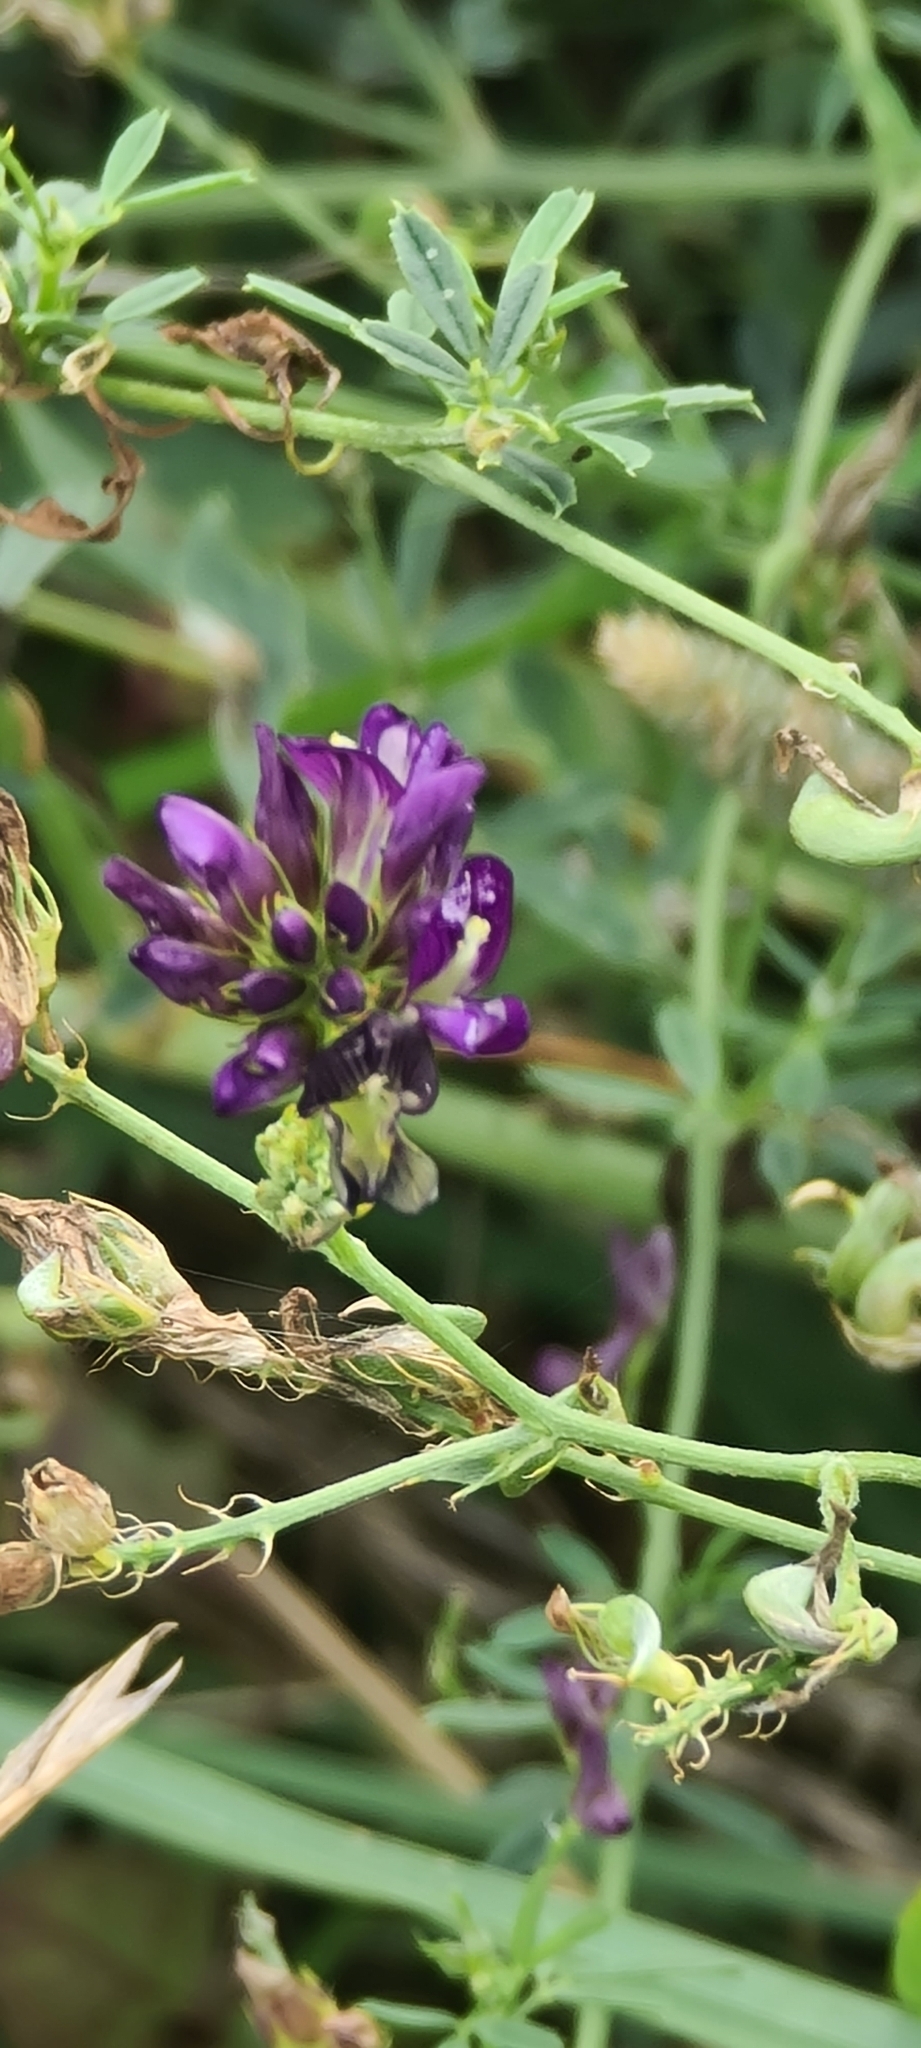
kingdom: Plantae
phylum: Tracheophyta
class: Magnoliopsida
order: Fabales
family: Fabaceae
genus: Medicago
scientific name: Medicago sativa
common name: Alfalfa
